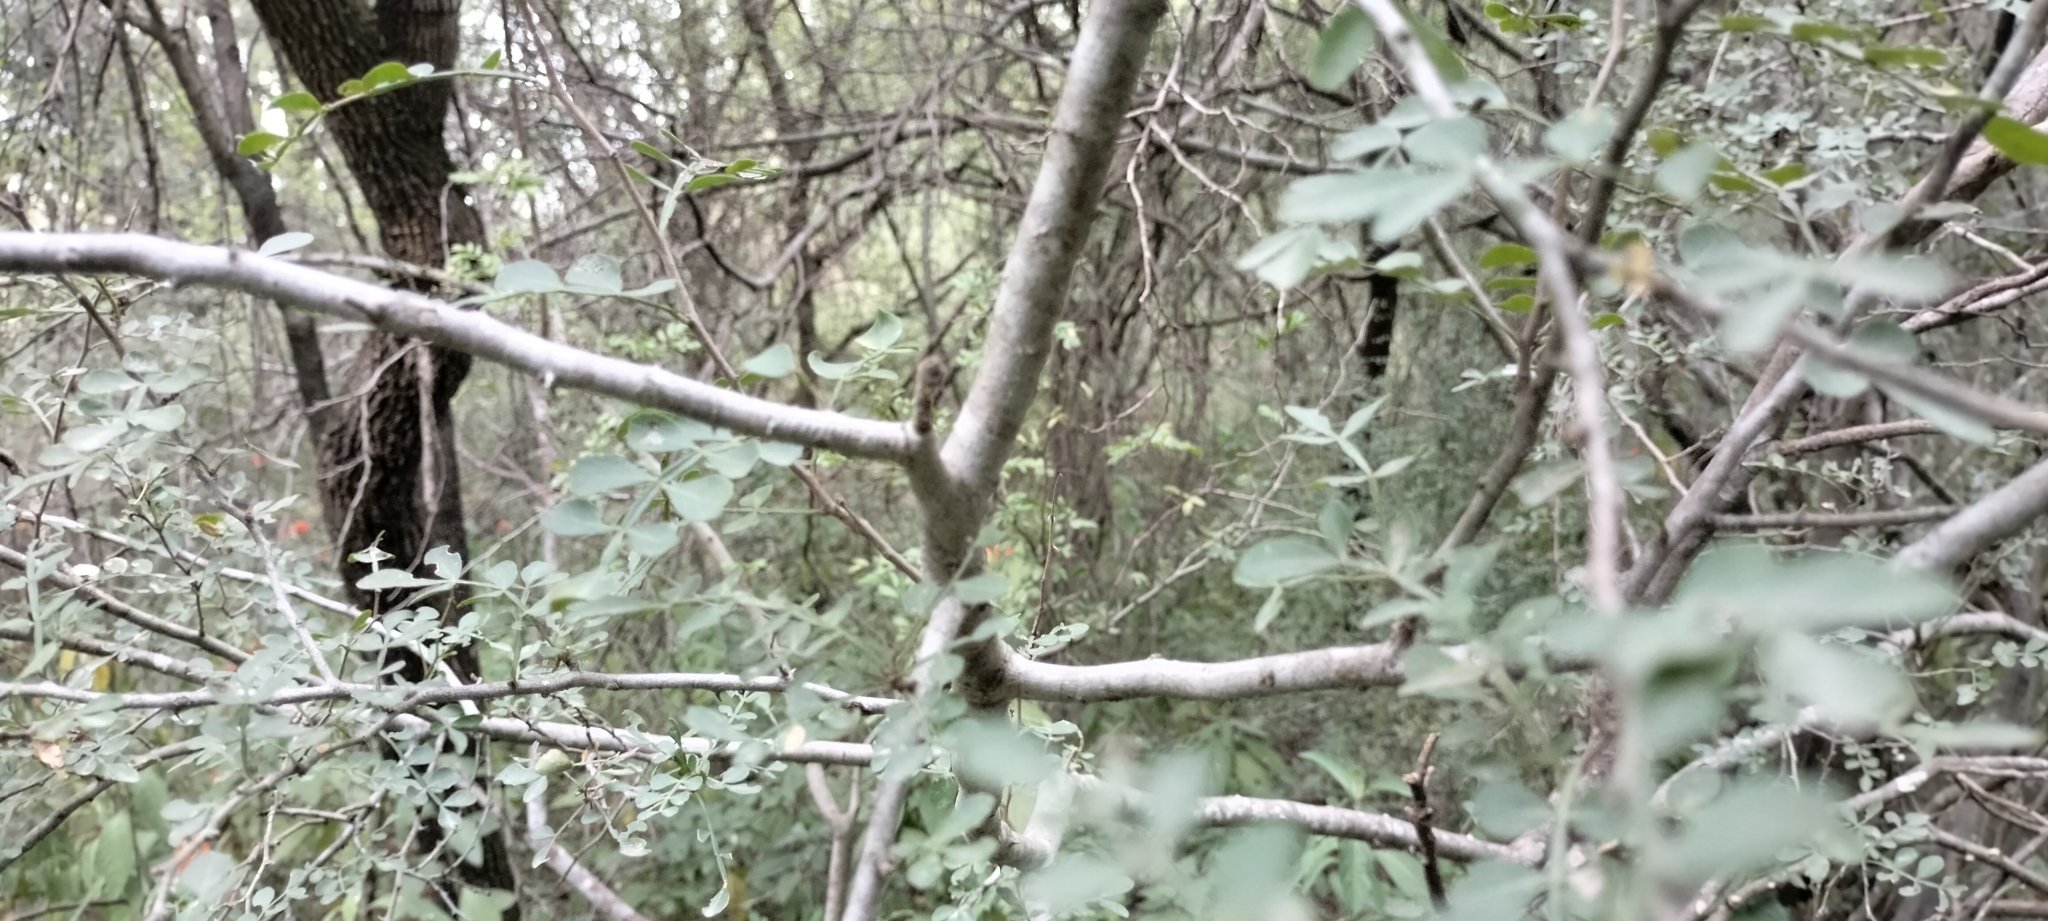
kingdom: Plantae
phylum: Tracheophyta
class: Magnoliopsida
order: Sapindales
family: Rutaceae
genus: Zanthoxylum
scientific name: Zanthoxylum fagara
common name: Lime prickly-ash
